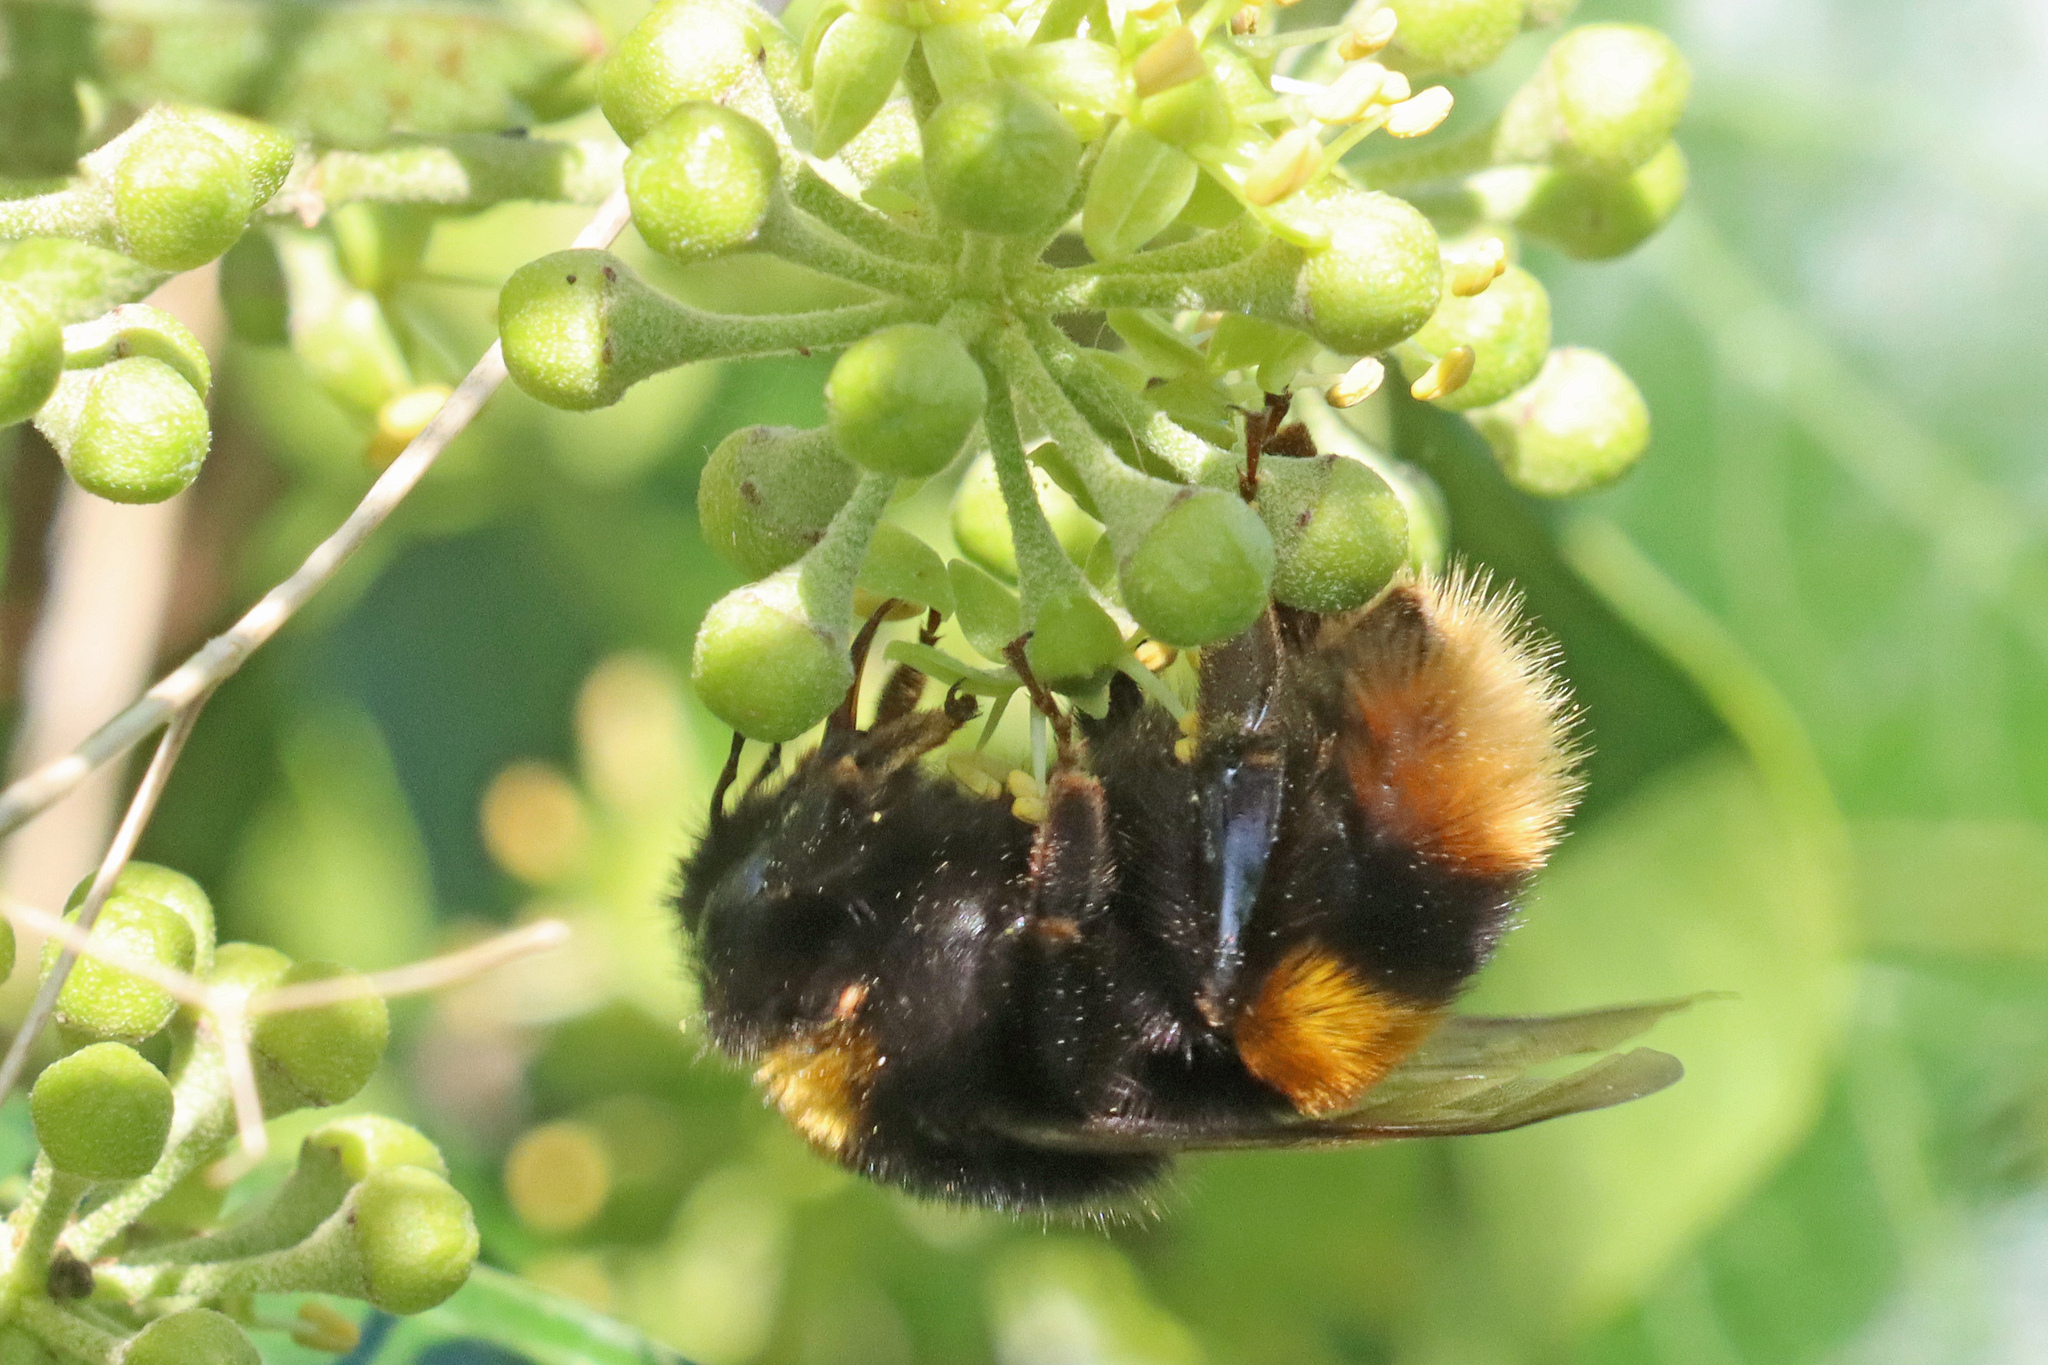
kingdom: Animalia
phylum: Arthropoda
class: Insecta
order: Hymenoptera
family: Apidae
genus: Bombus
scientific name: Bombus terrestris
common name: Buff-tailed bumblebee
